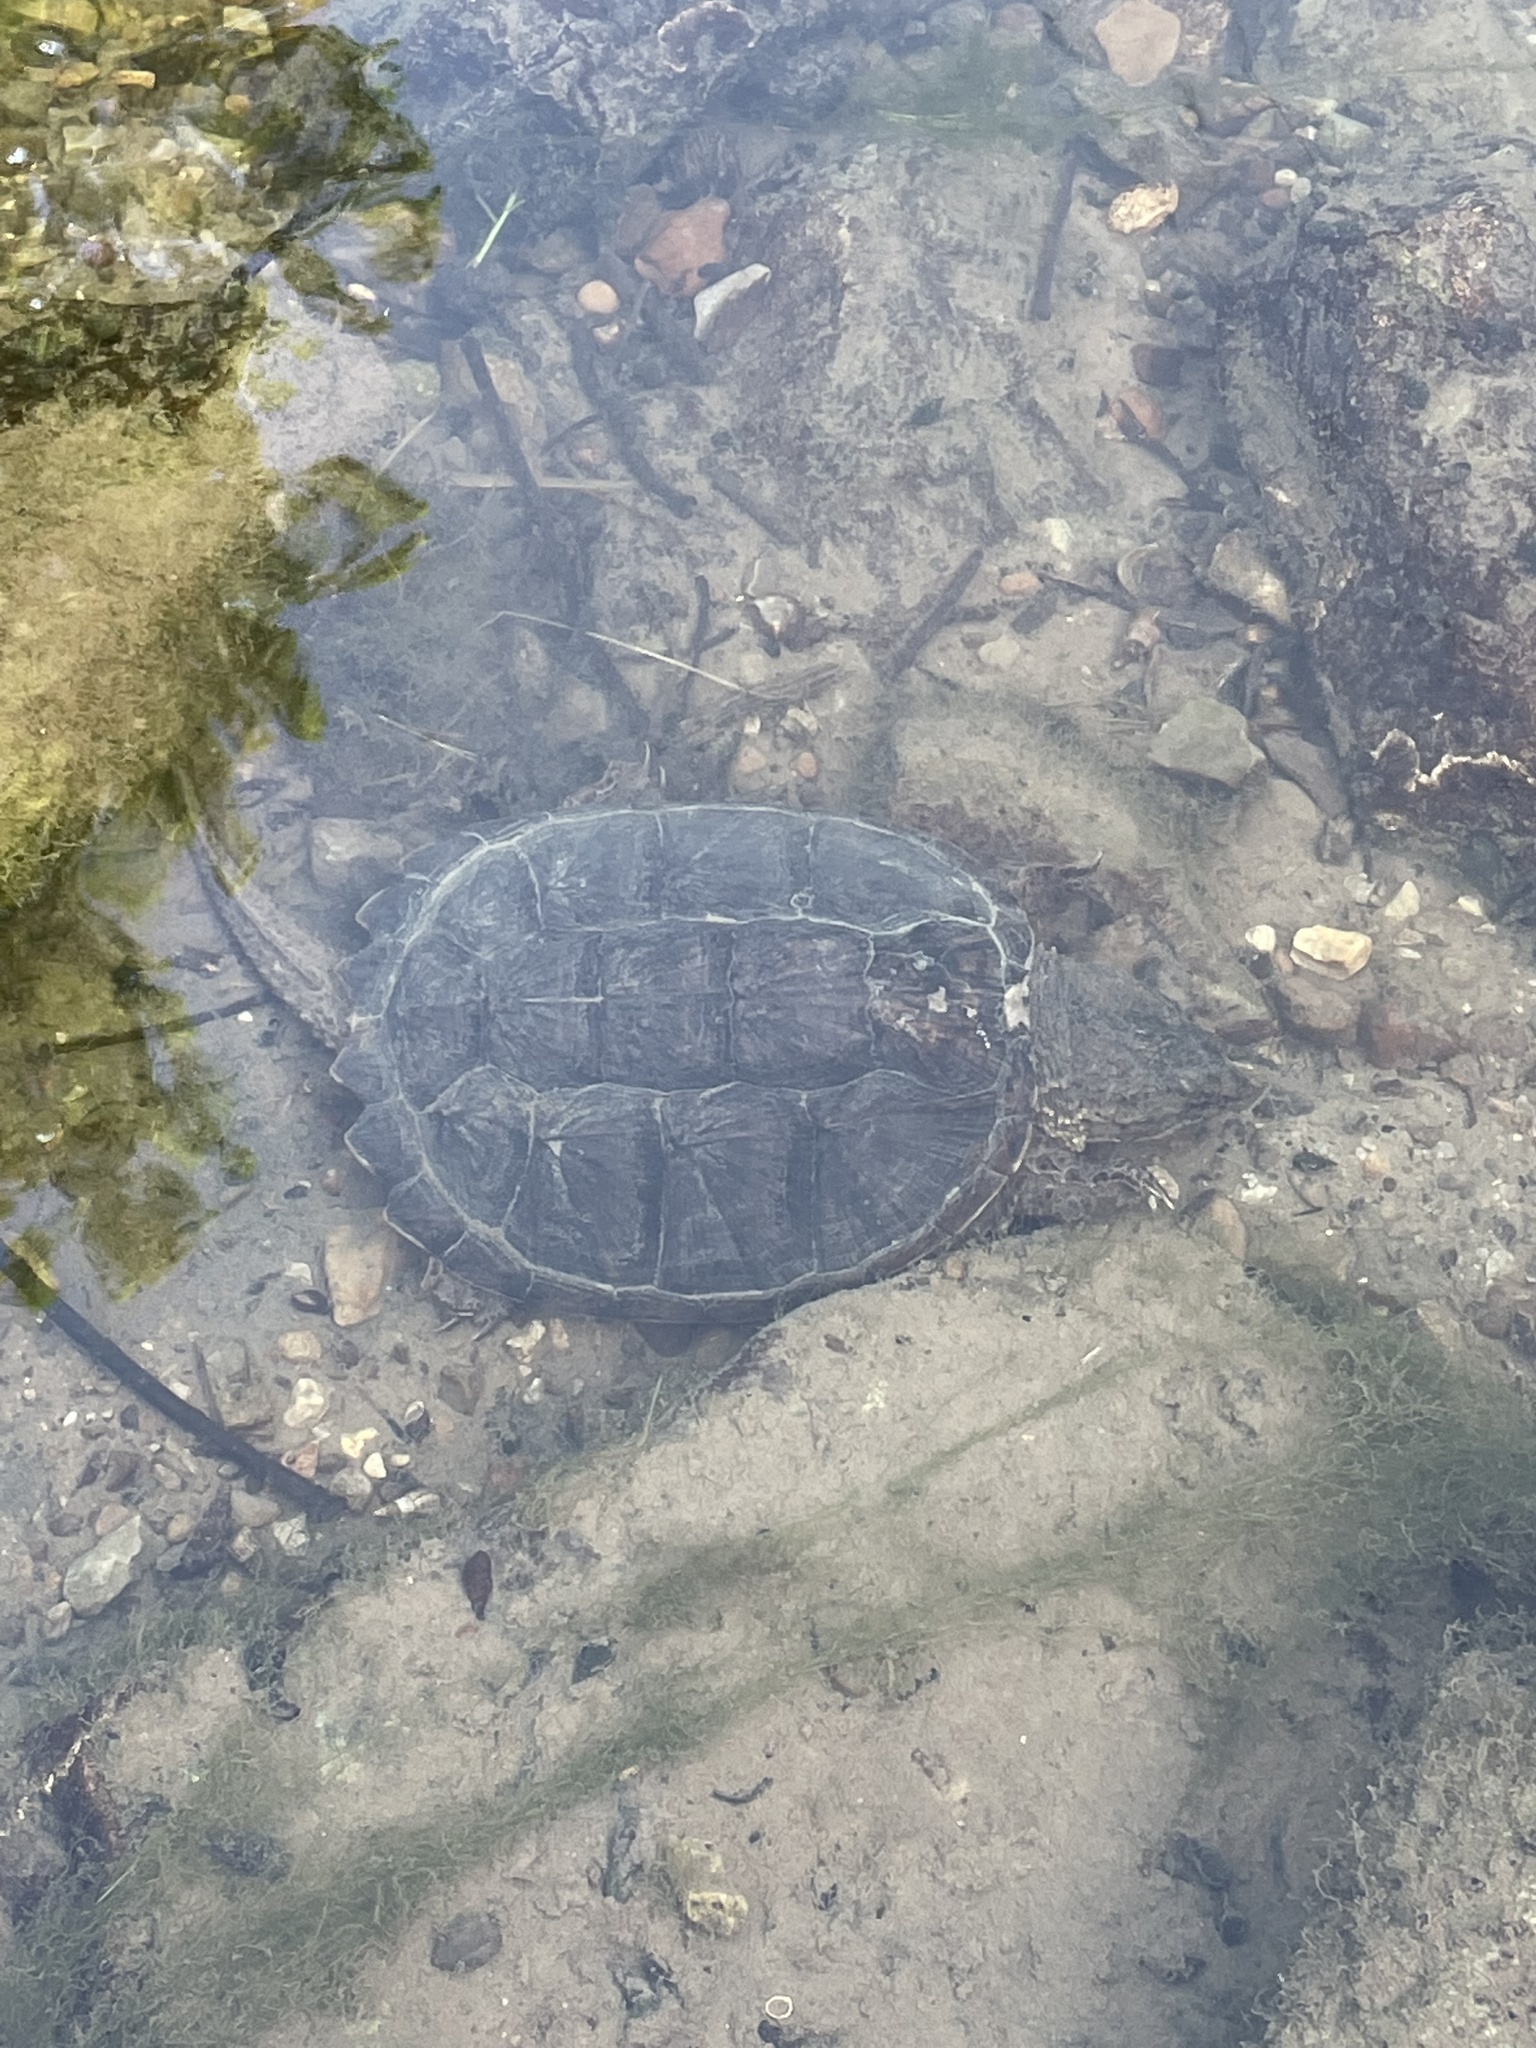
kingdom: Animalia
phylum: Chordata
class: Testudines
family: Chelydridae
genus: Chelydra
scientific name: Chelydra serpentina
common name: Common snapping turtle
